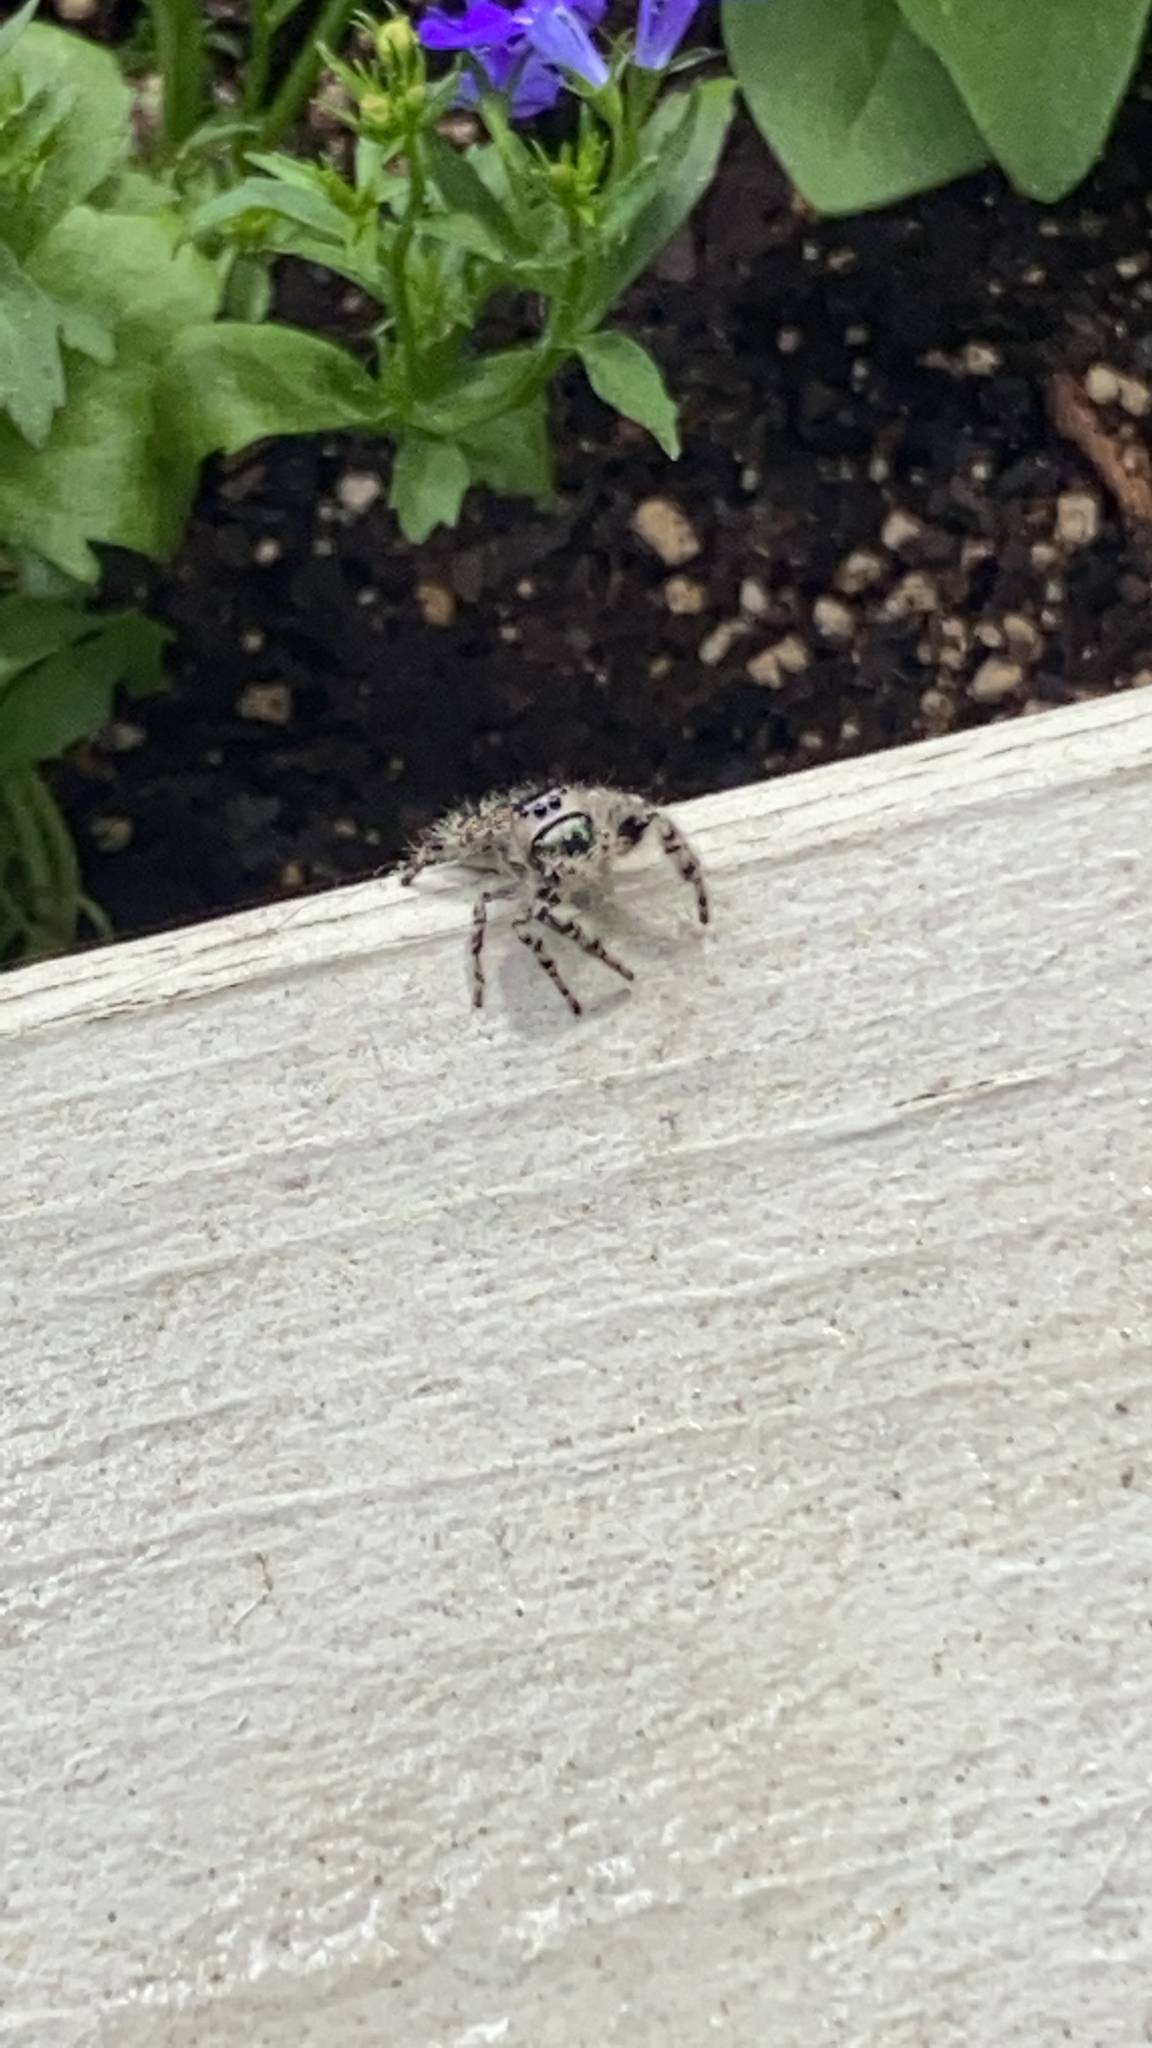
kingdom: Animalia
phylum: Arthropoda
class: Arachnida
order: Araneae
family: Salticidae
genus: Phidippus
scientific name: Phidippus otiosus
